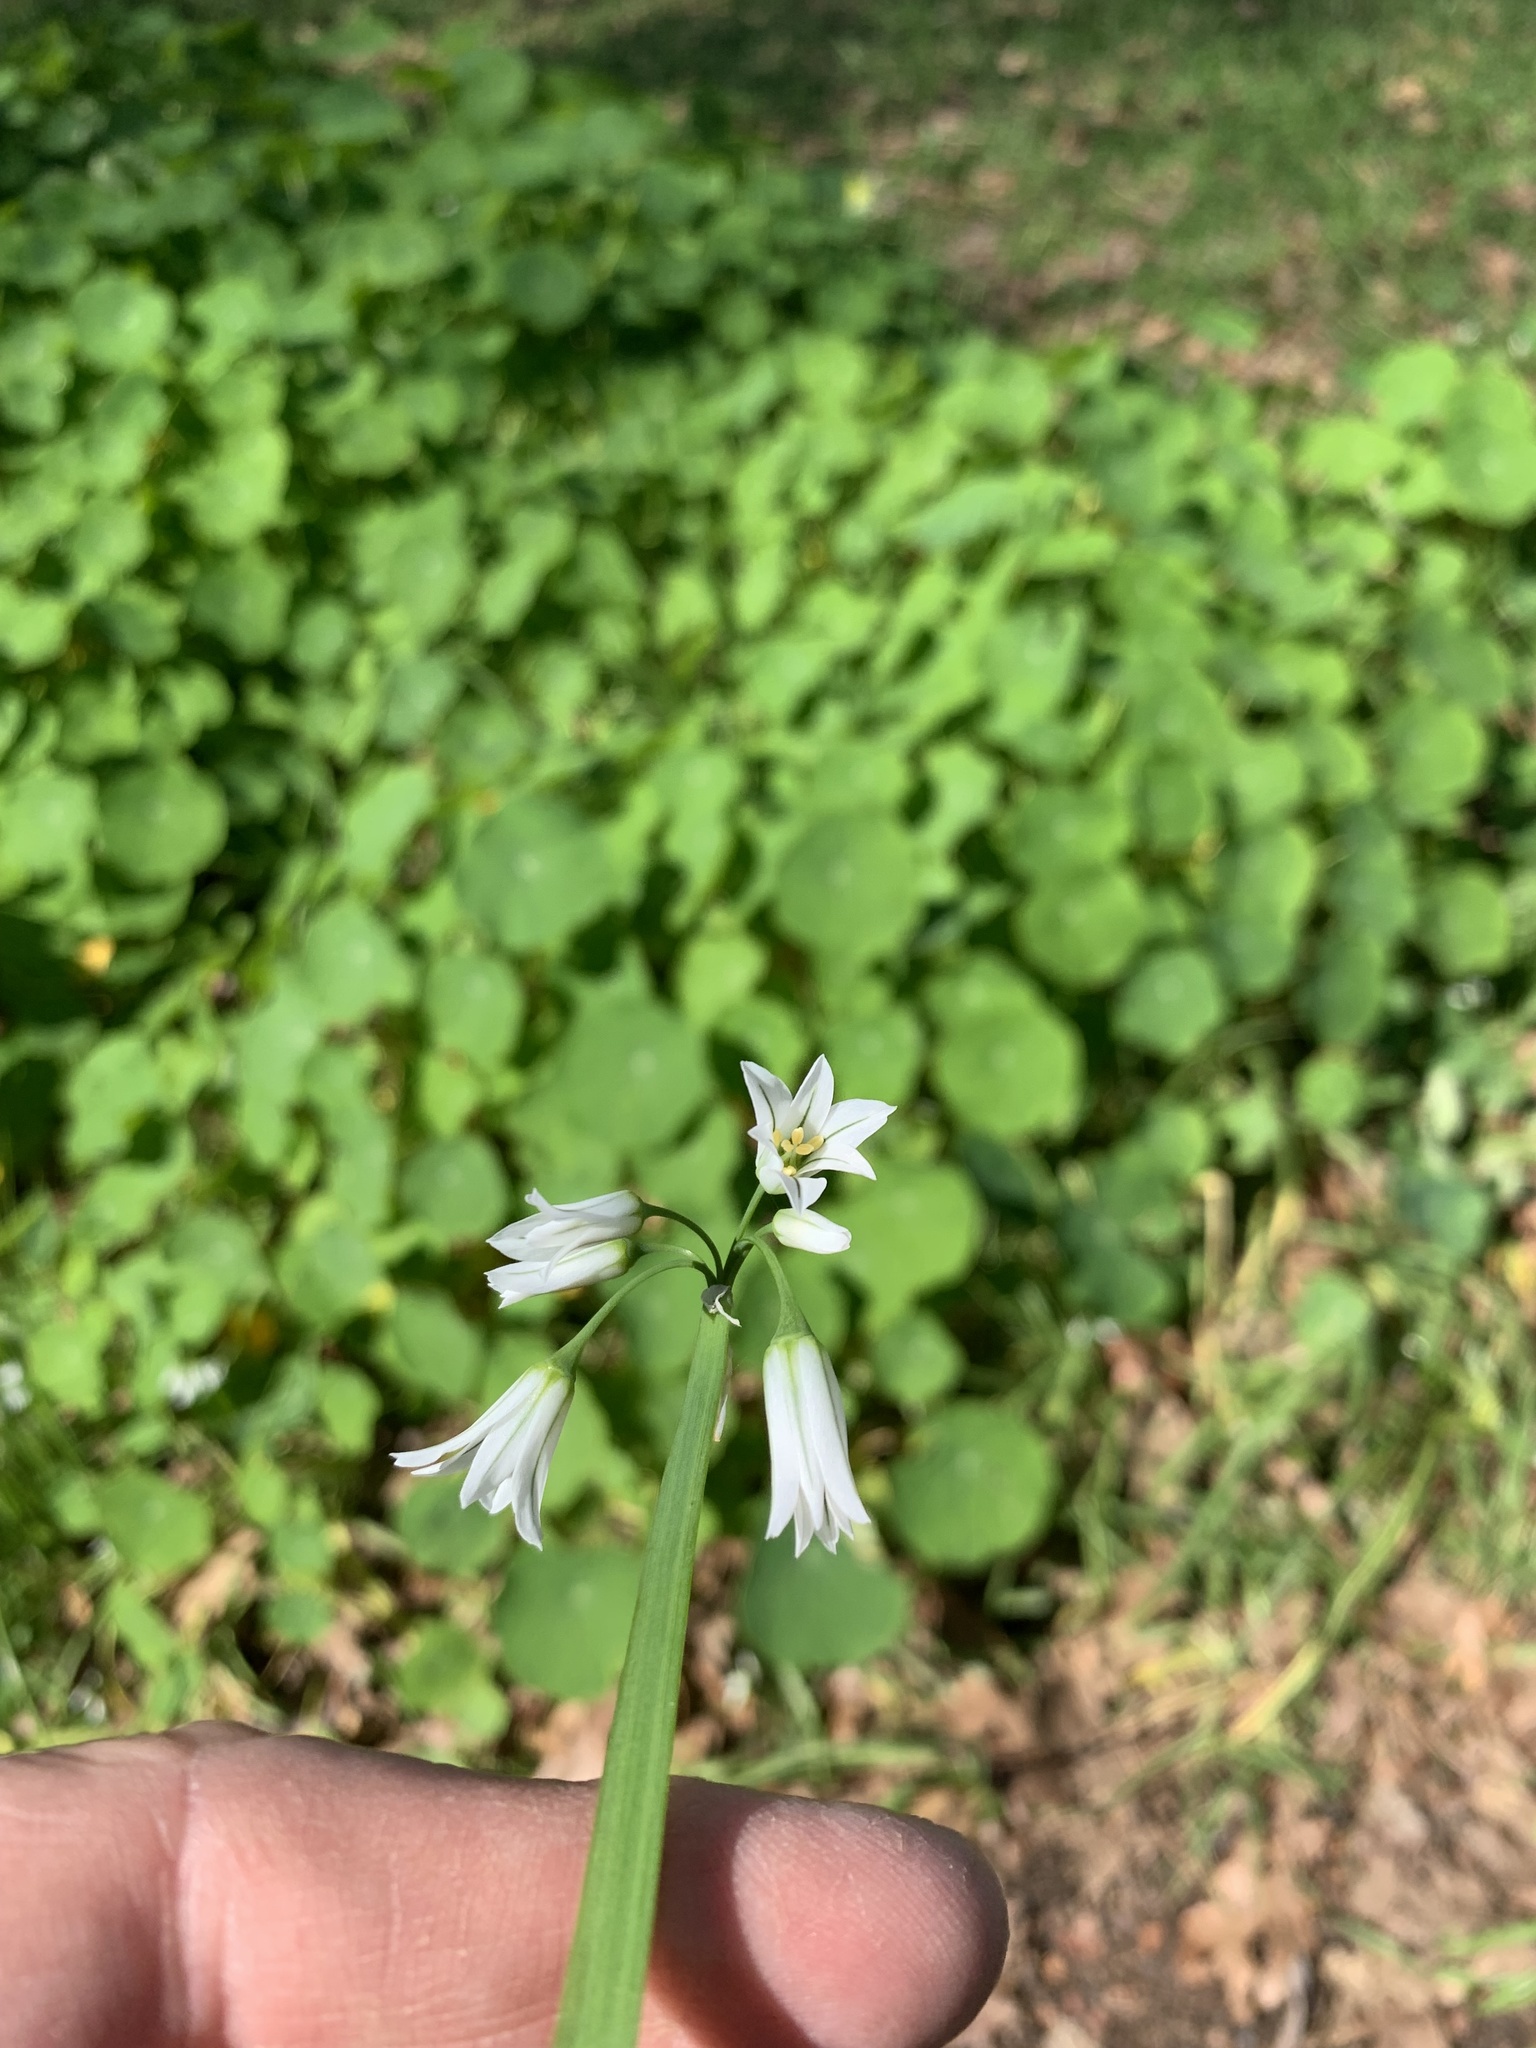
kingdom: Plantae
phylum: Tracheophyta
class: Liliopsida
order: Asparagales
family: Amaryllidaceae
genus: Allium
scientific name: Allium triquetrum
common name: Three-cornered garlic
